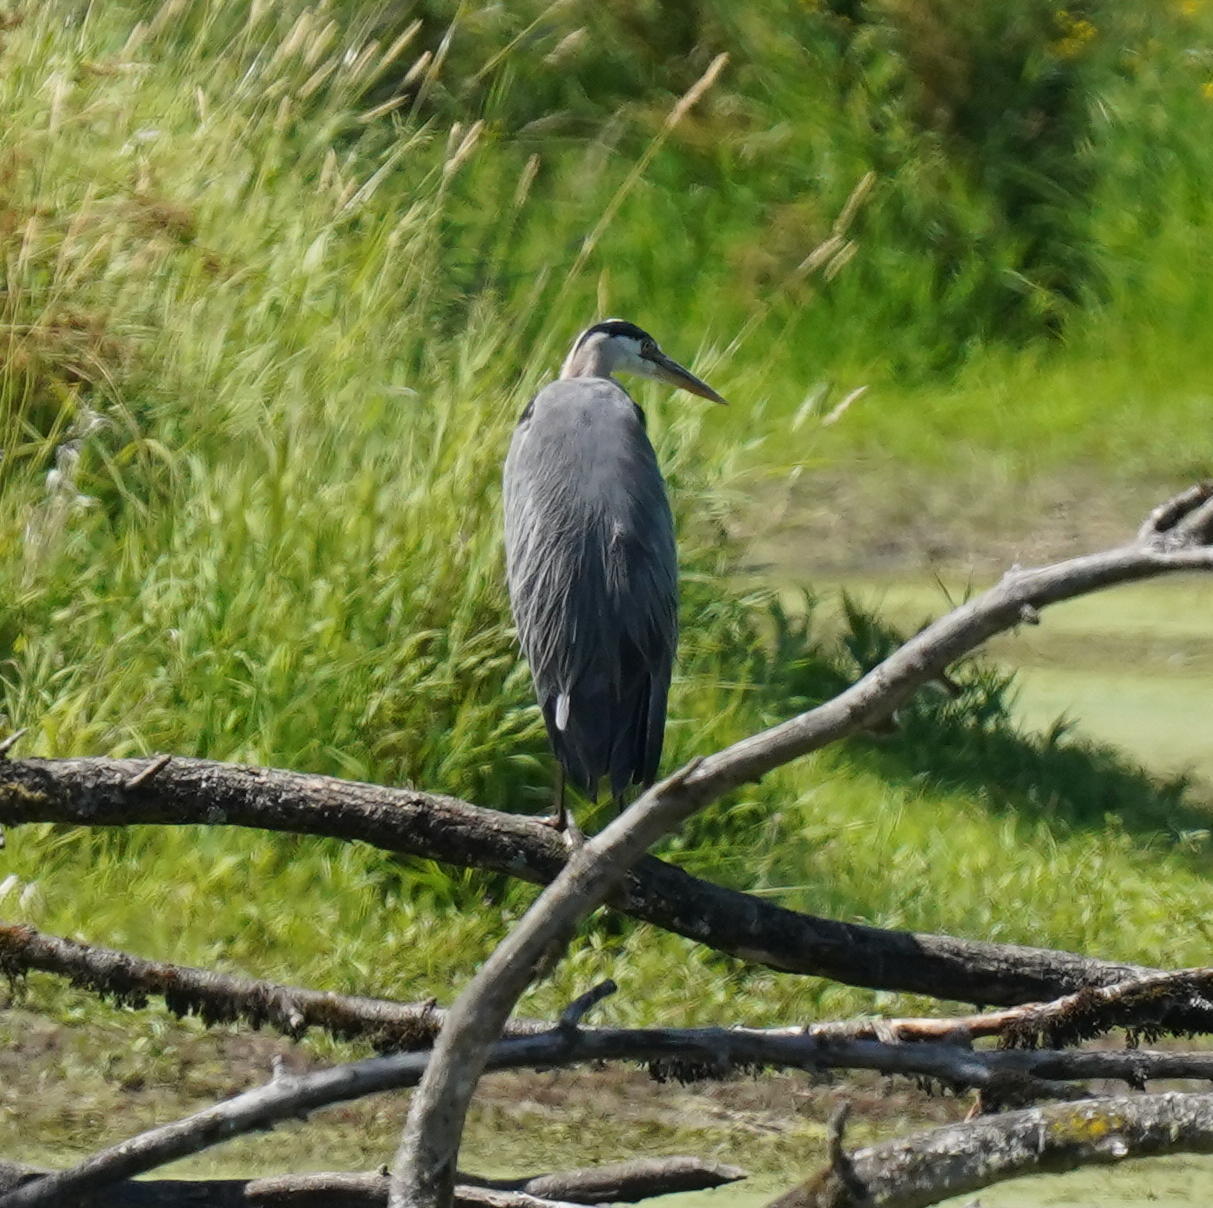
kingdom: Animalia
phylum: Chordata
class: Aves
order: Pelecaniformes
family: Ardeidae
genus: Ardea
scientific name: Ardea herodias
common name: Great blue heron
